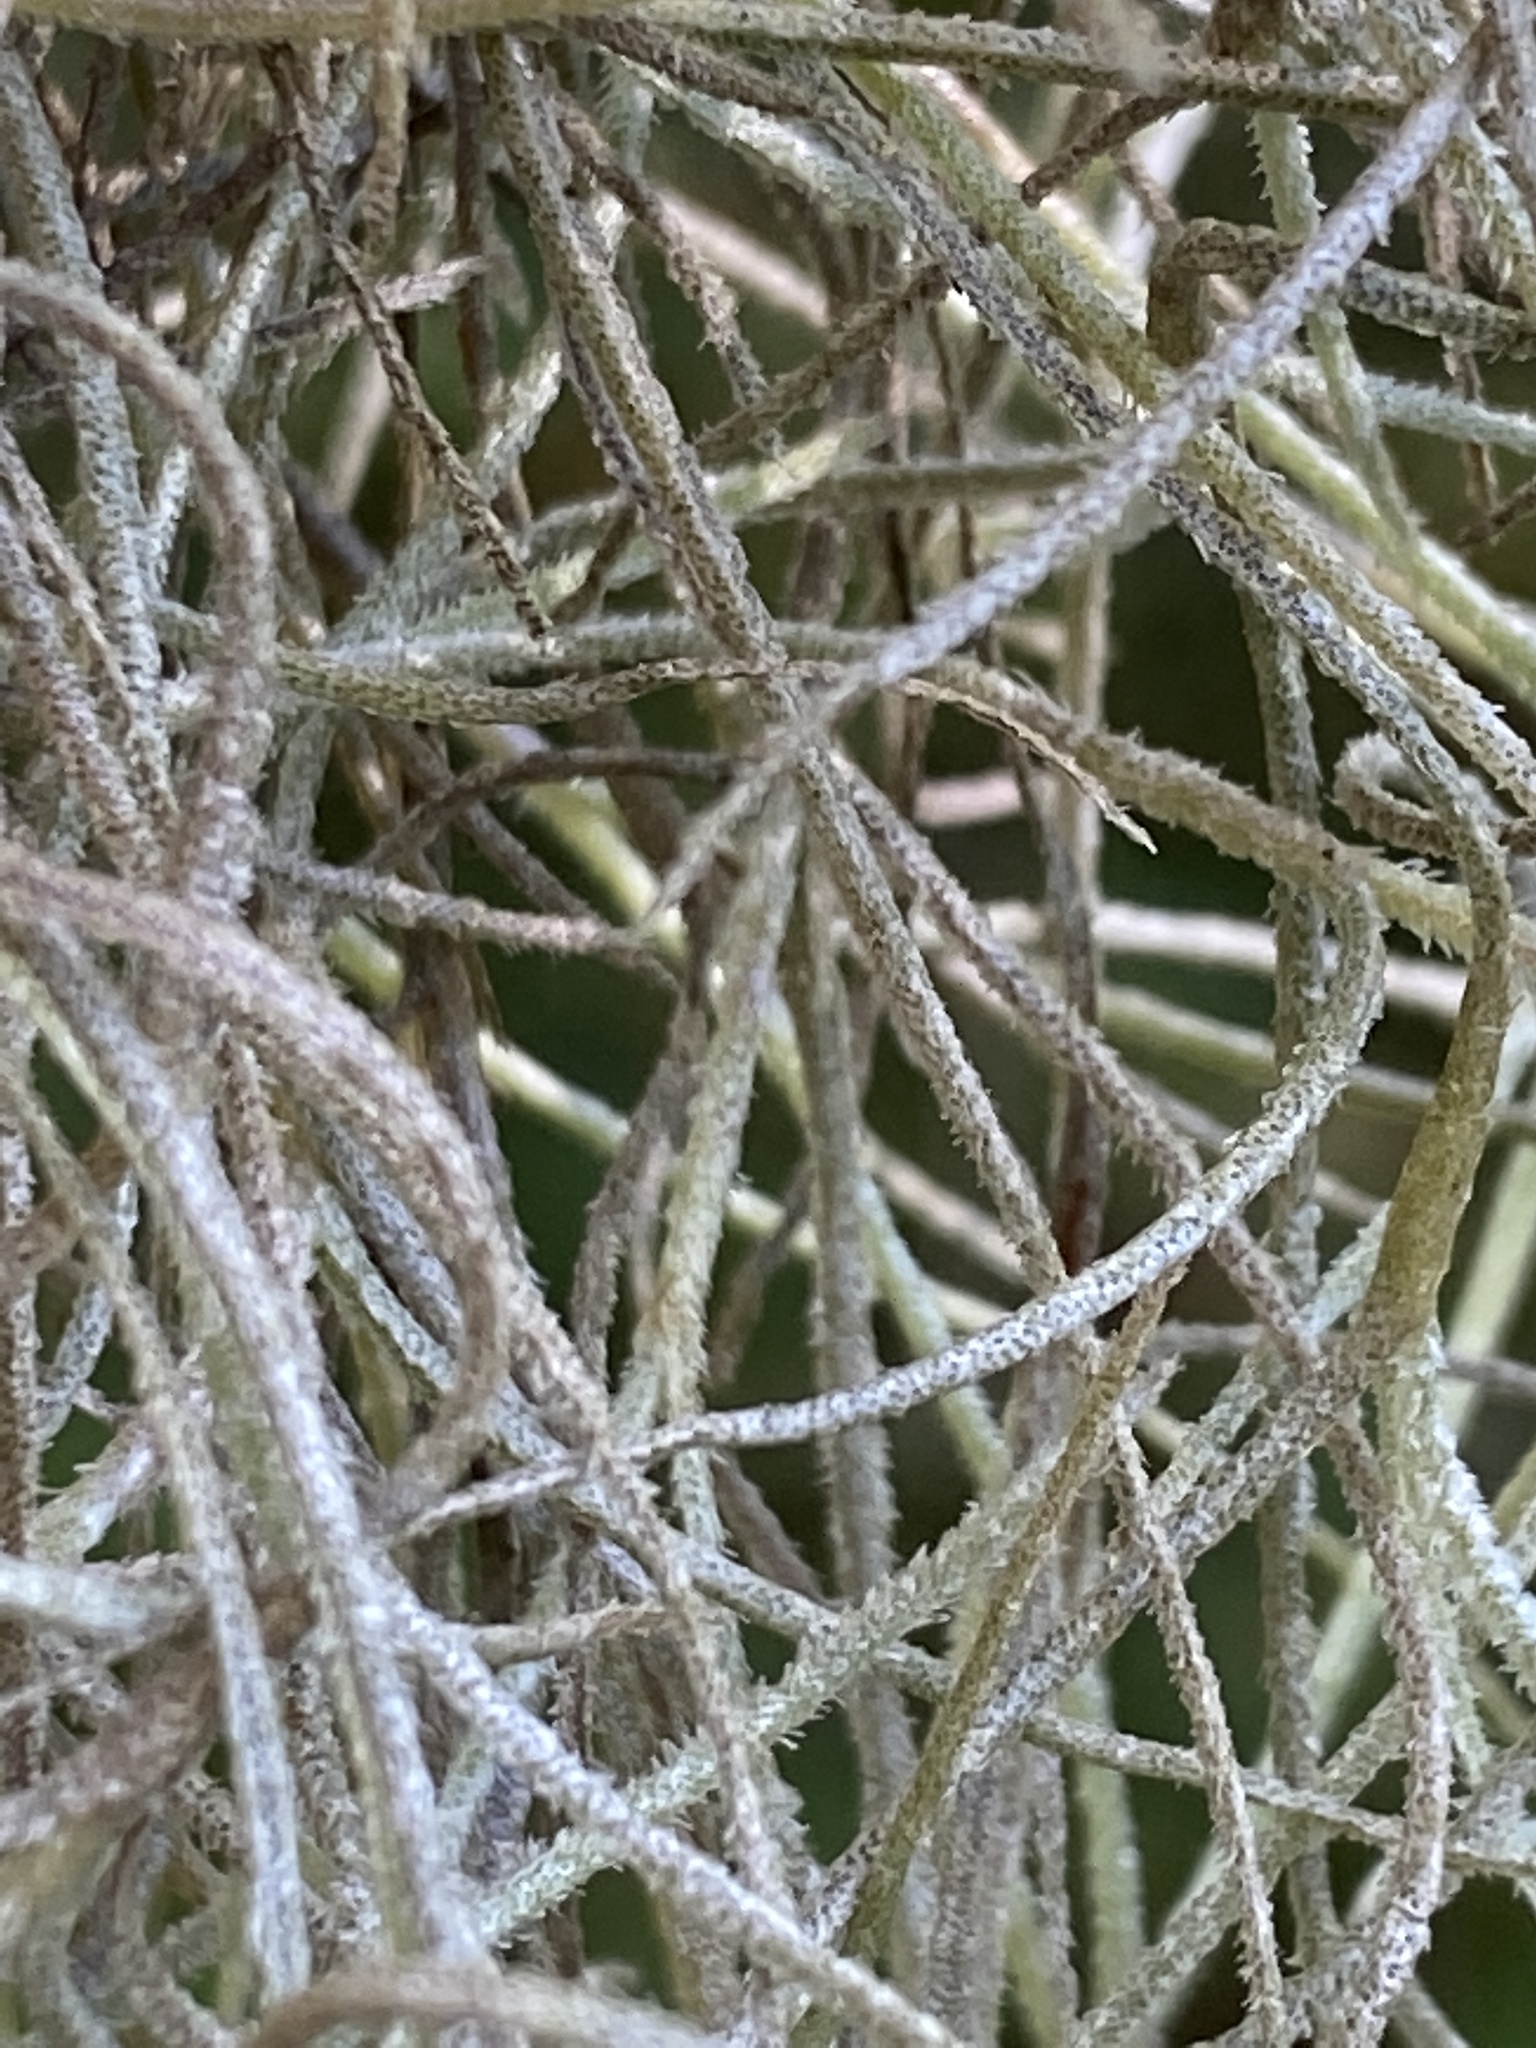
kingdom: Plantae
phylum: Tracheophyta
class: Liliopsida
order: Poales
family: Bromeliaceae
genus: Tillandsia
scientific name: Tillandsia usneoides
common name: Spanish moss
